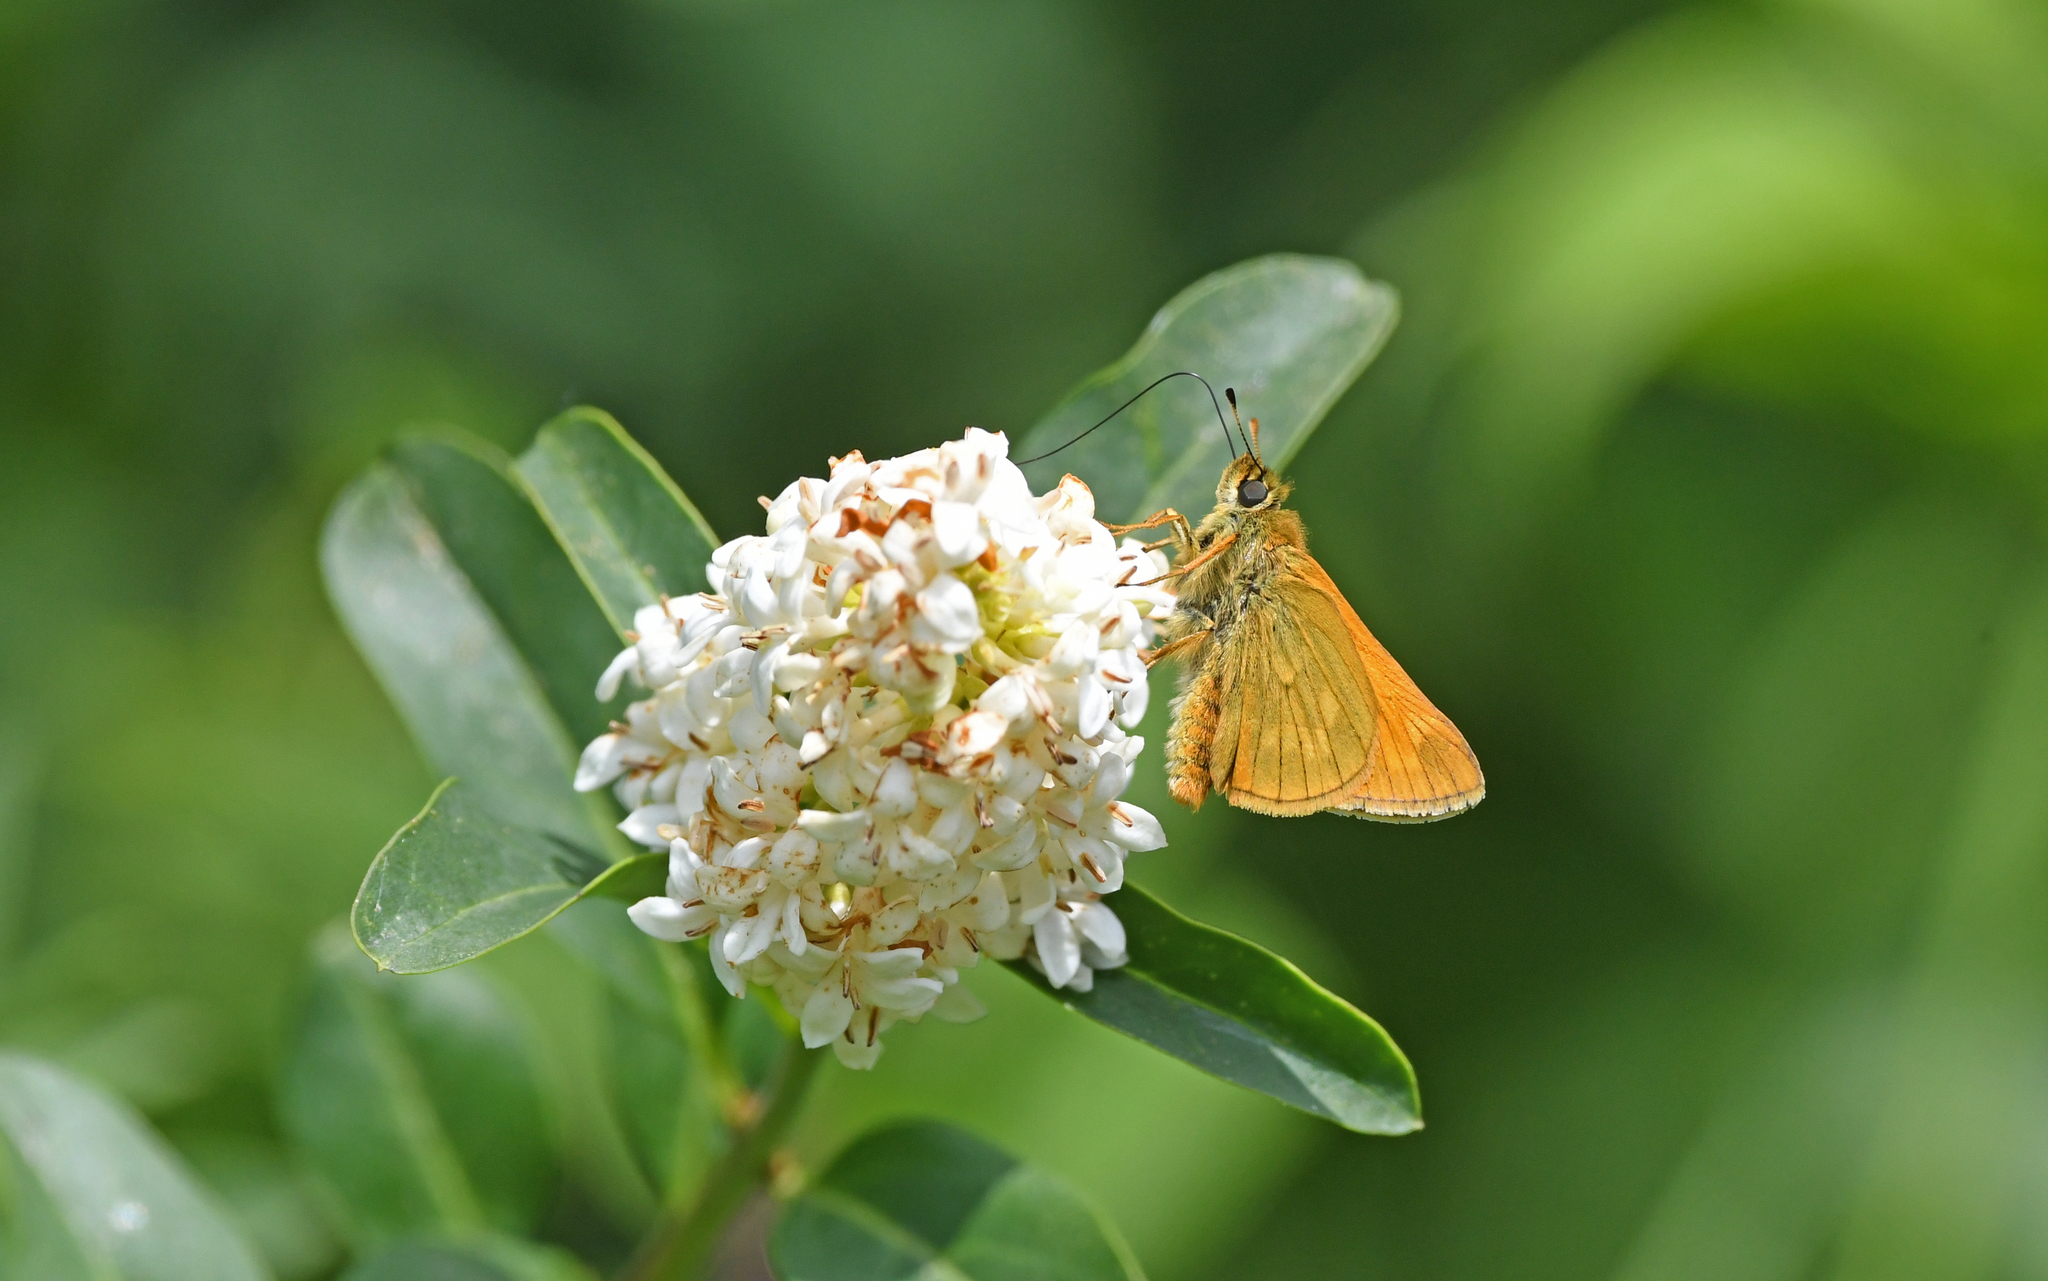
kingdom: Animalia
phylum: Arthropoda
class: Insecta
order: Lepidoptera
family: Hesperiidae
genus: Ochlodes
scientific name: Ochlodes venata
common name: Large skipper
